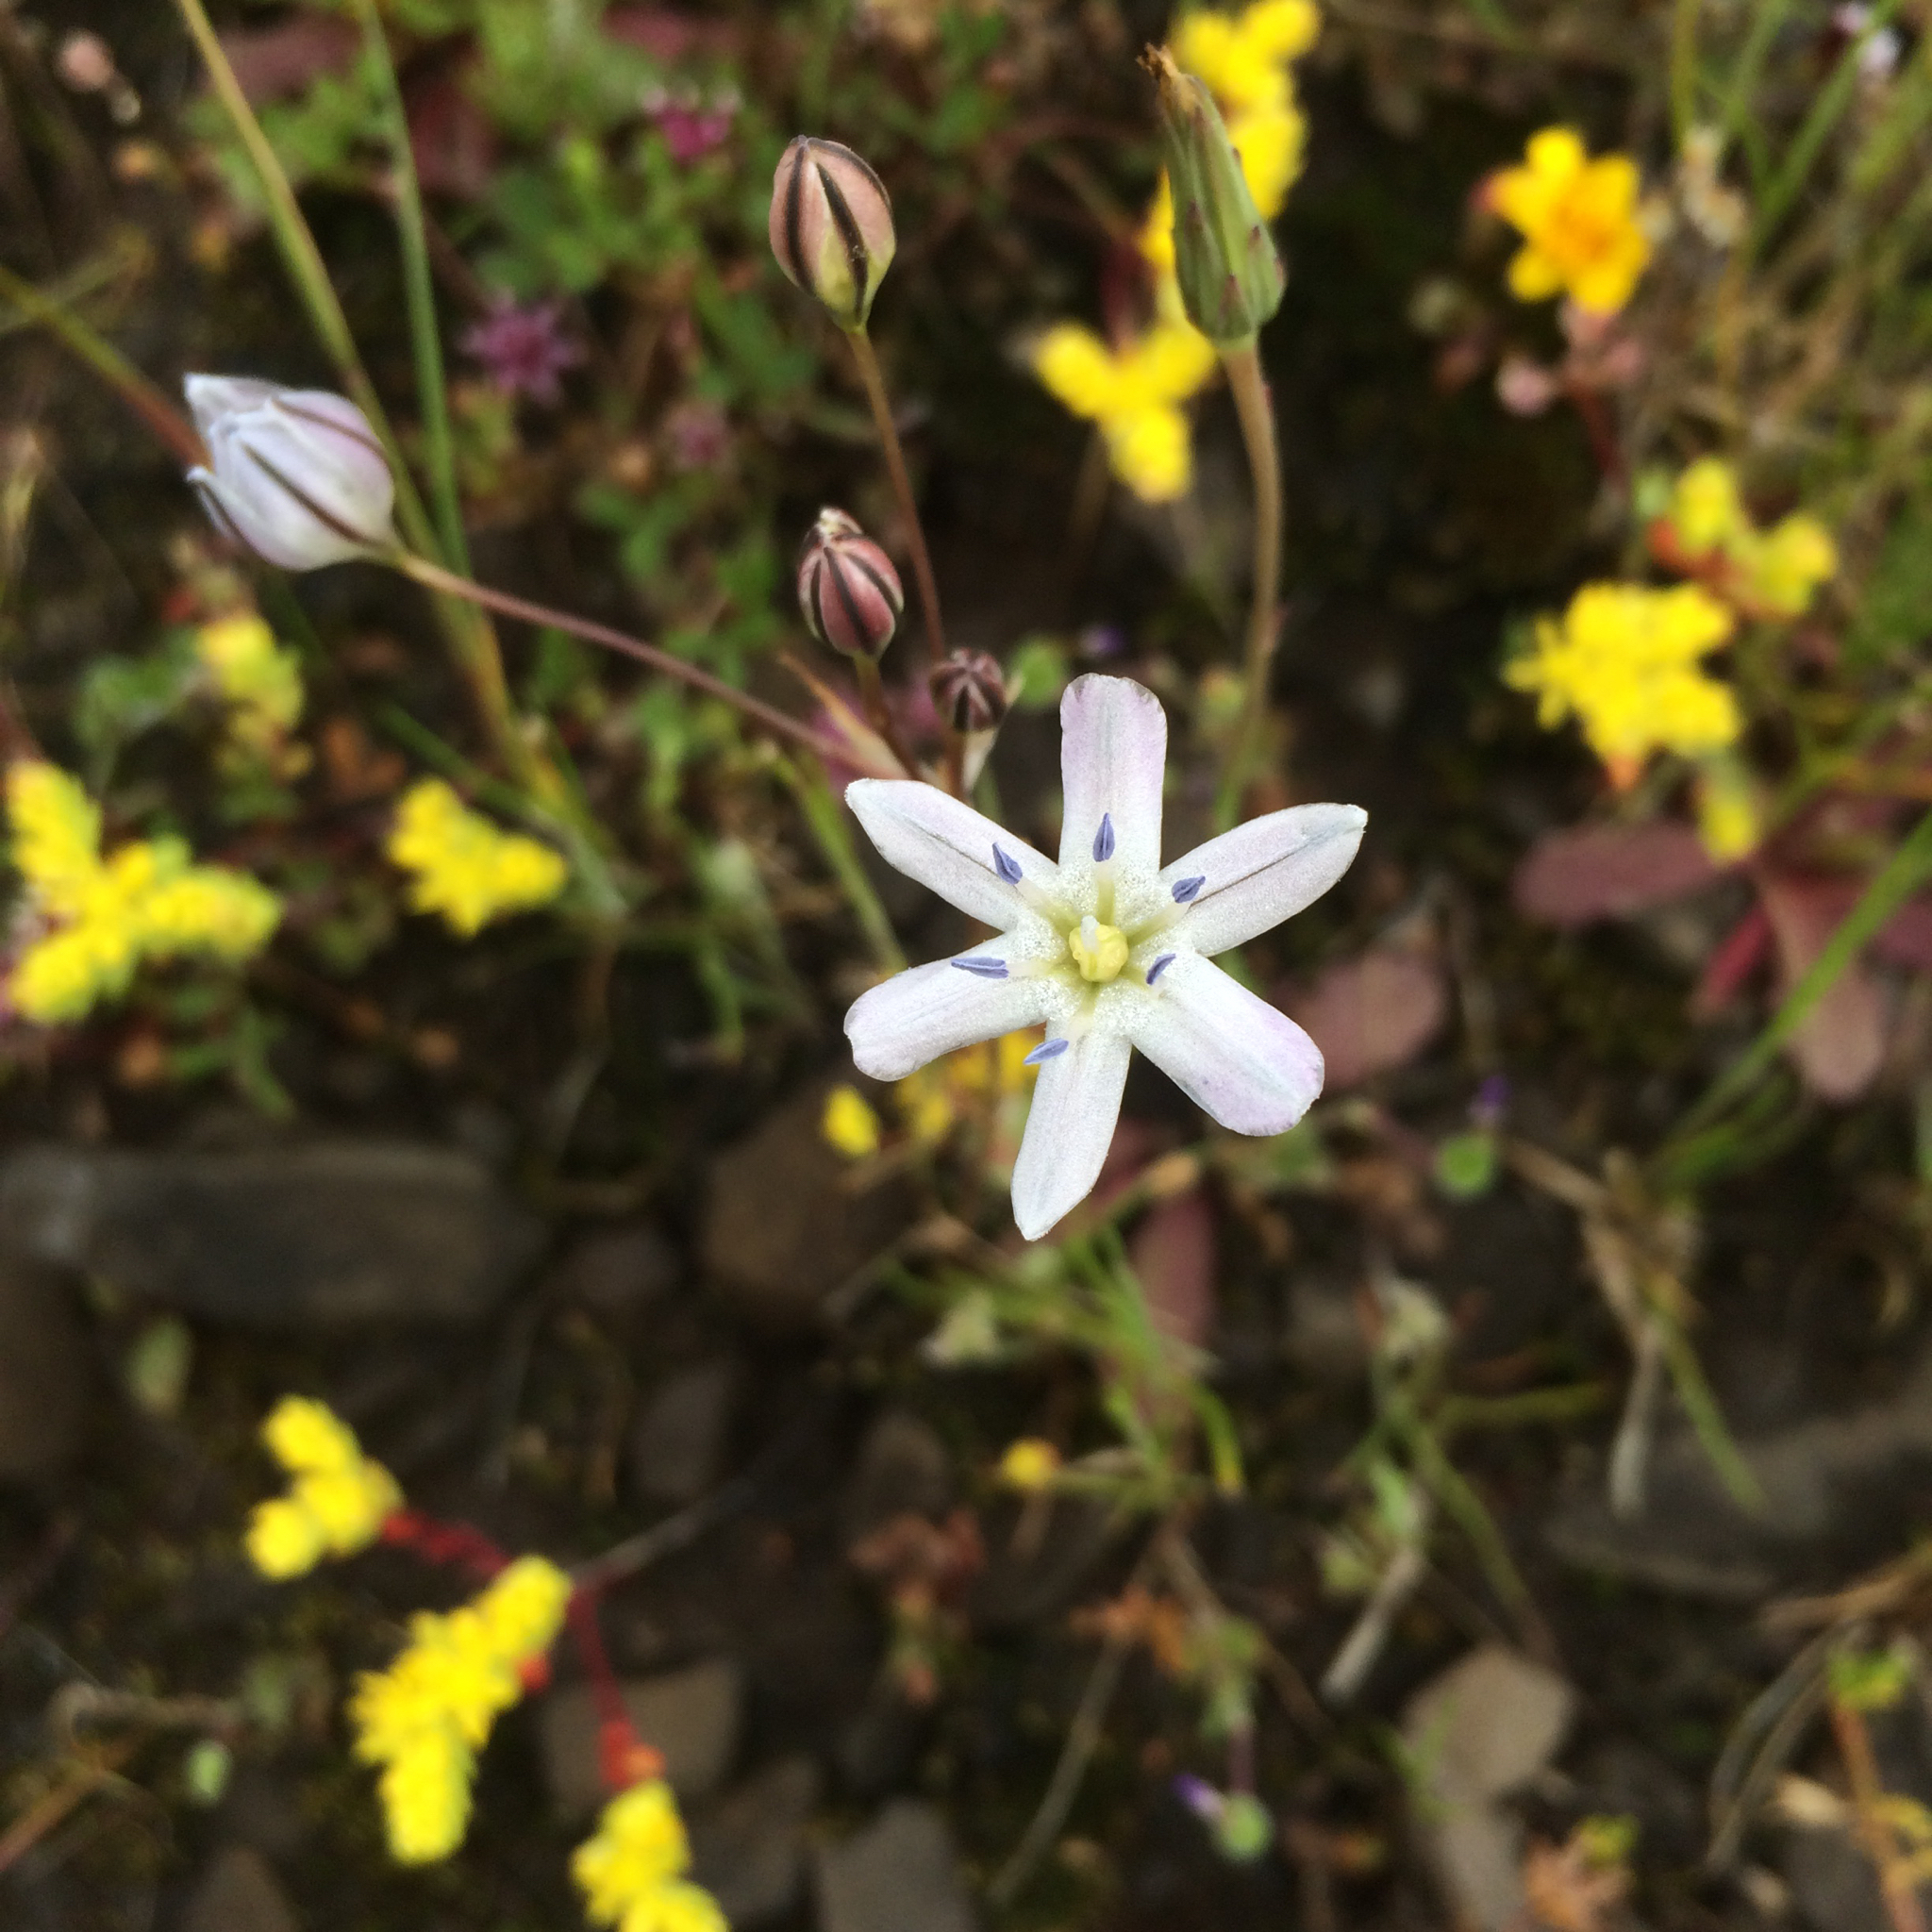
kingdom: Plantae
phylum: Tracheophyta
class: Liliopsida
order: Asparagales
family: Asparagaceae
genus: Triteleia
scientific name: Triteleia lilacina
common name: Lilac-flower wild hyacinth
